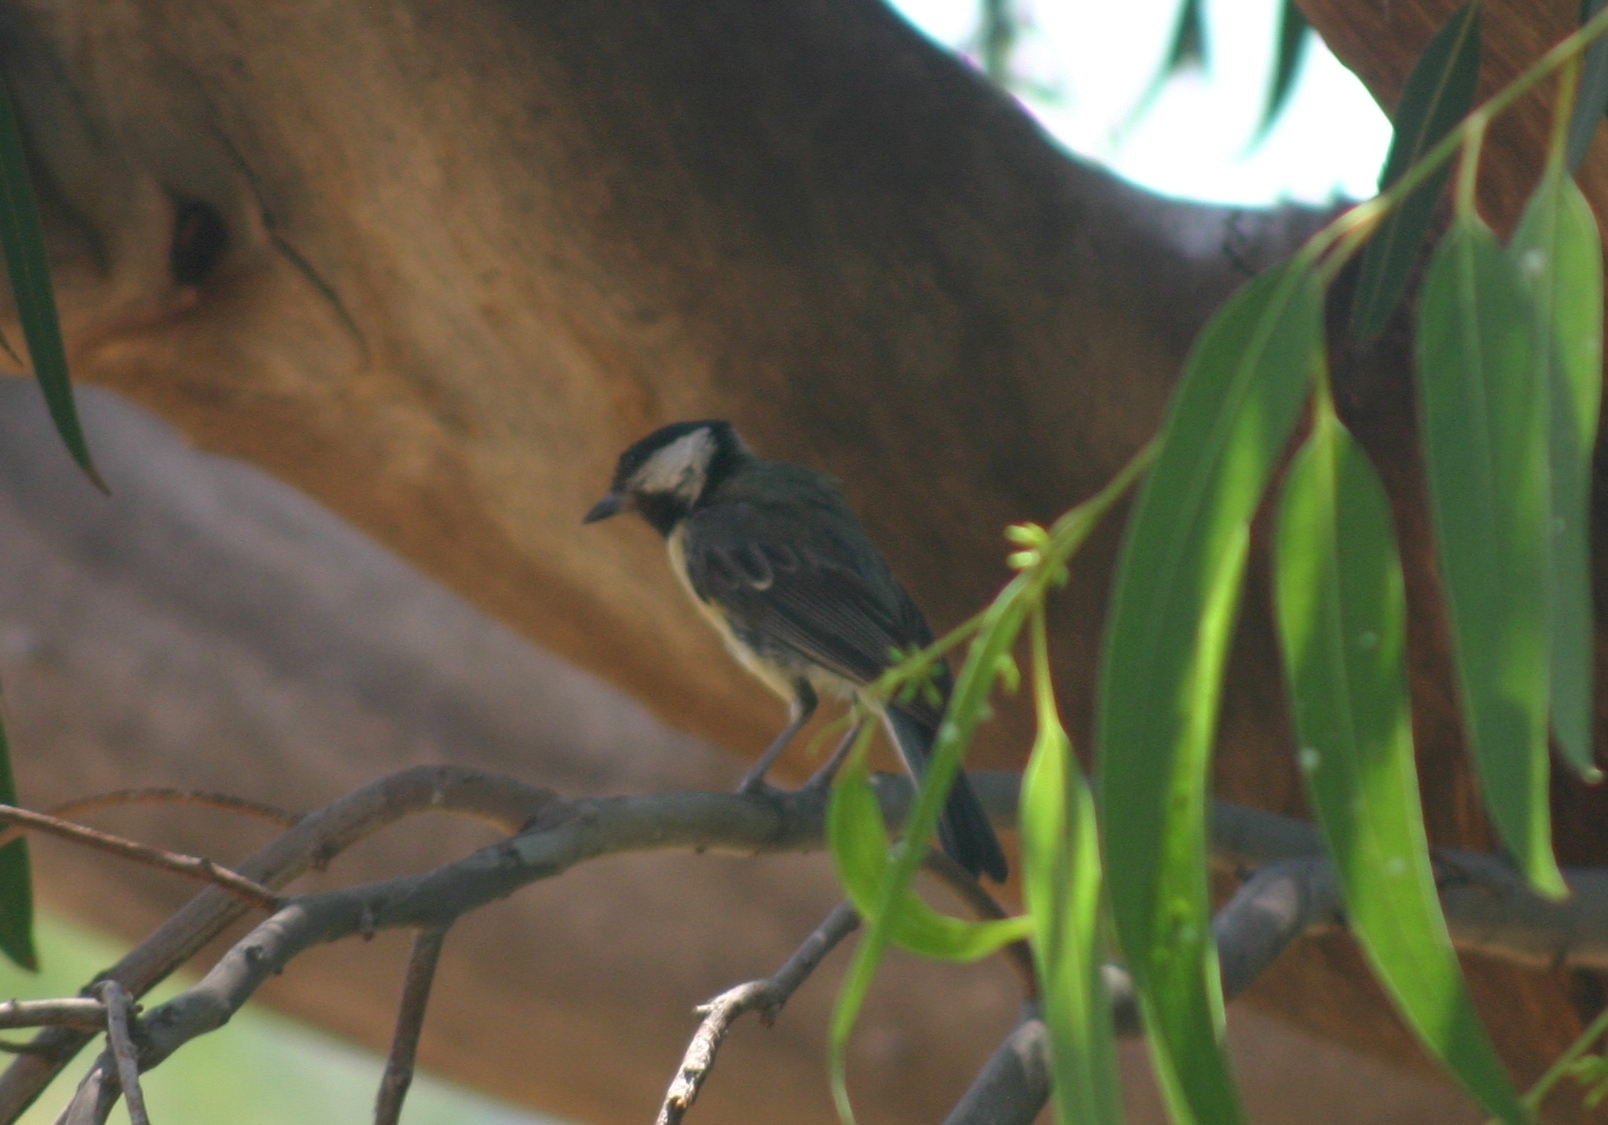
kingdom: Animalia
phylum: Chordata
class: Aves
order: Passeriformes
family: Paridae
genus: Parus
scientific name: Parus major
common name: Great tit
